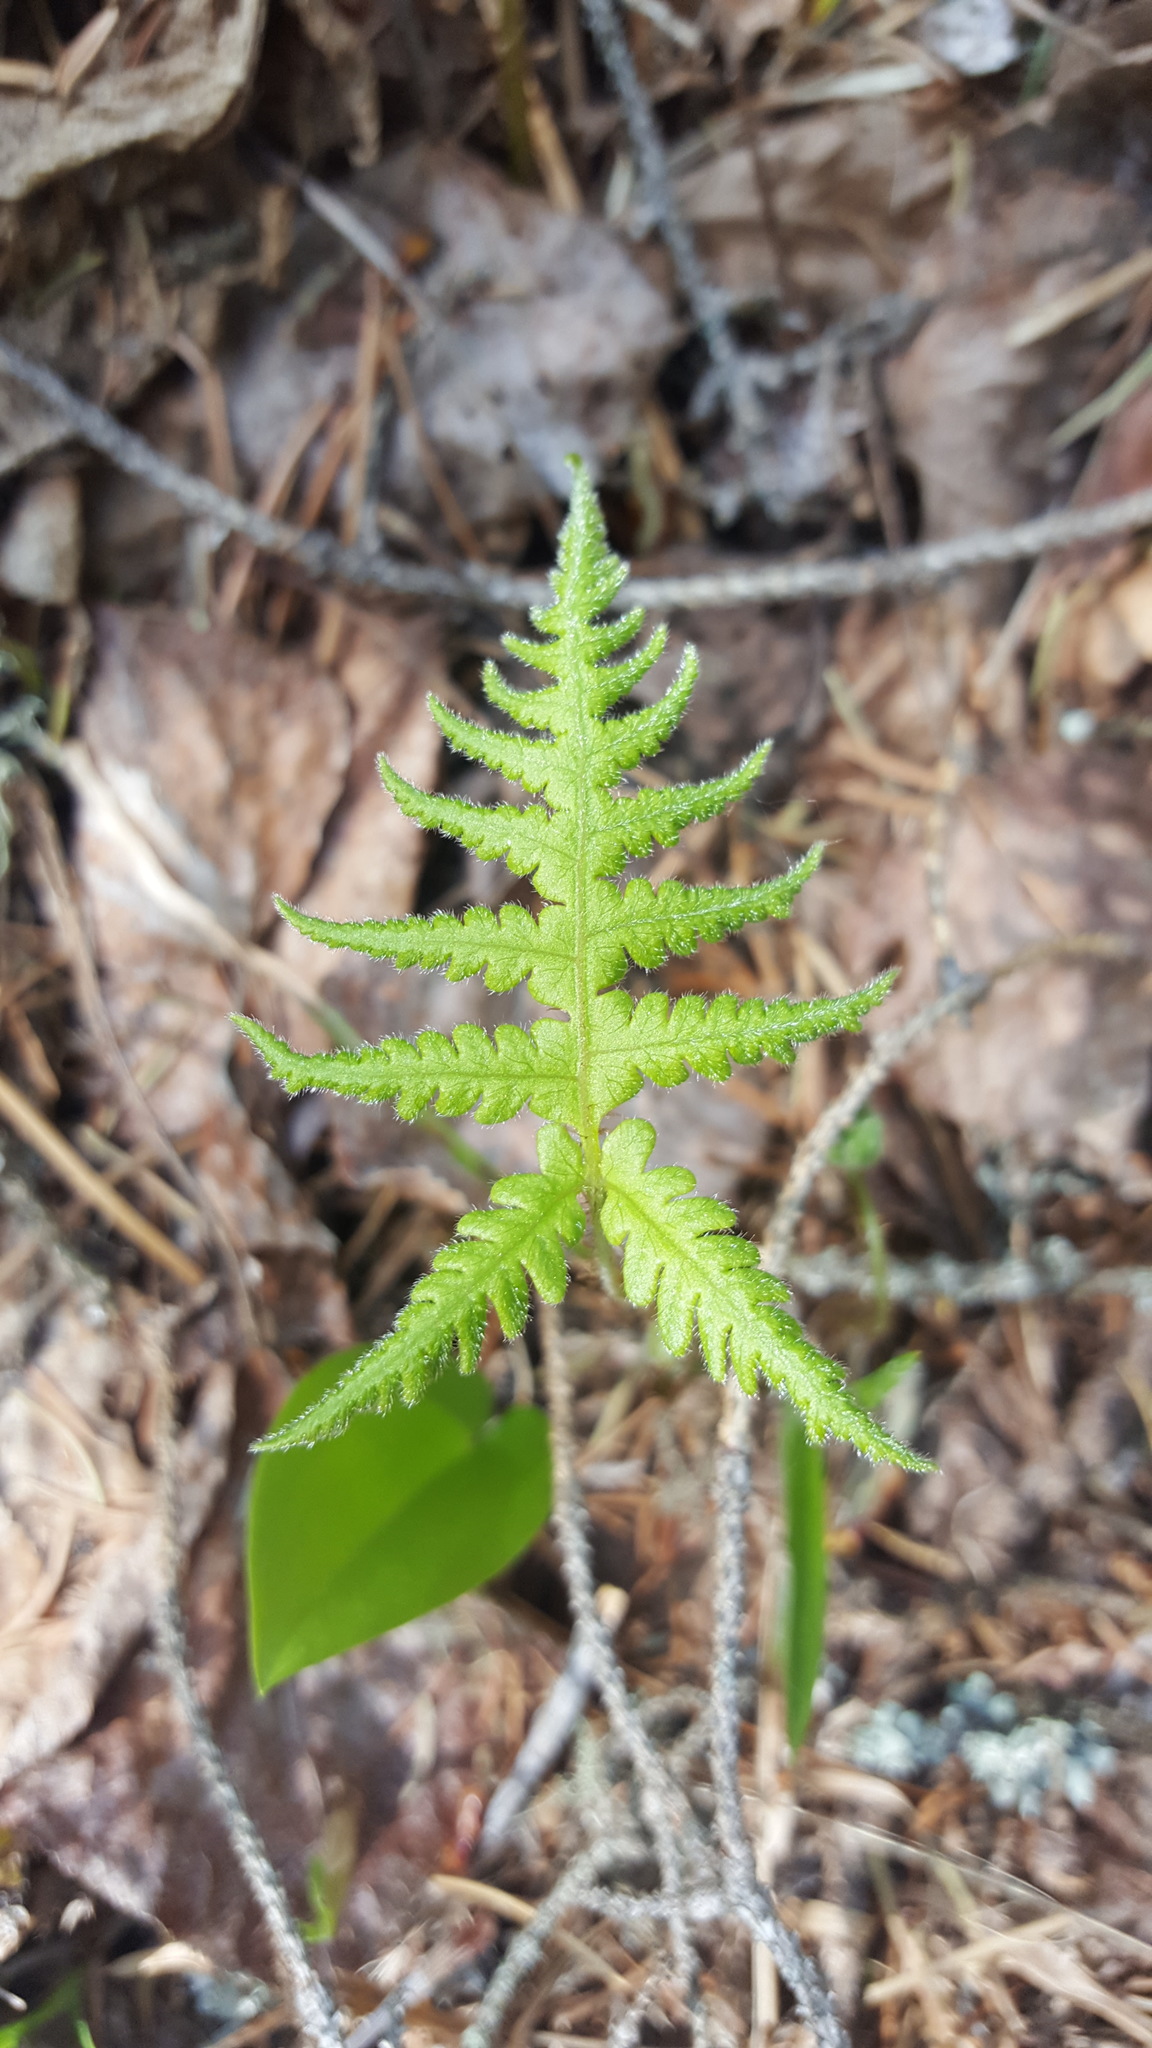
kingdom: Plantae
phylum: Tracheophyta
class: Polypodiopsida
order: Polypodiales
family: Thelypteridaceae
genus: Phegopteris
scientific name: Phegopteris connectilis
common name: Beech fern
